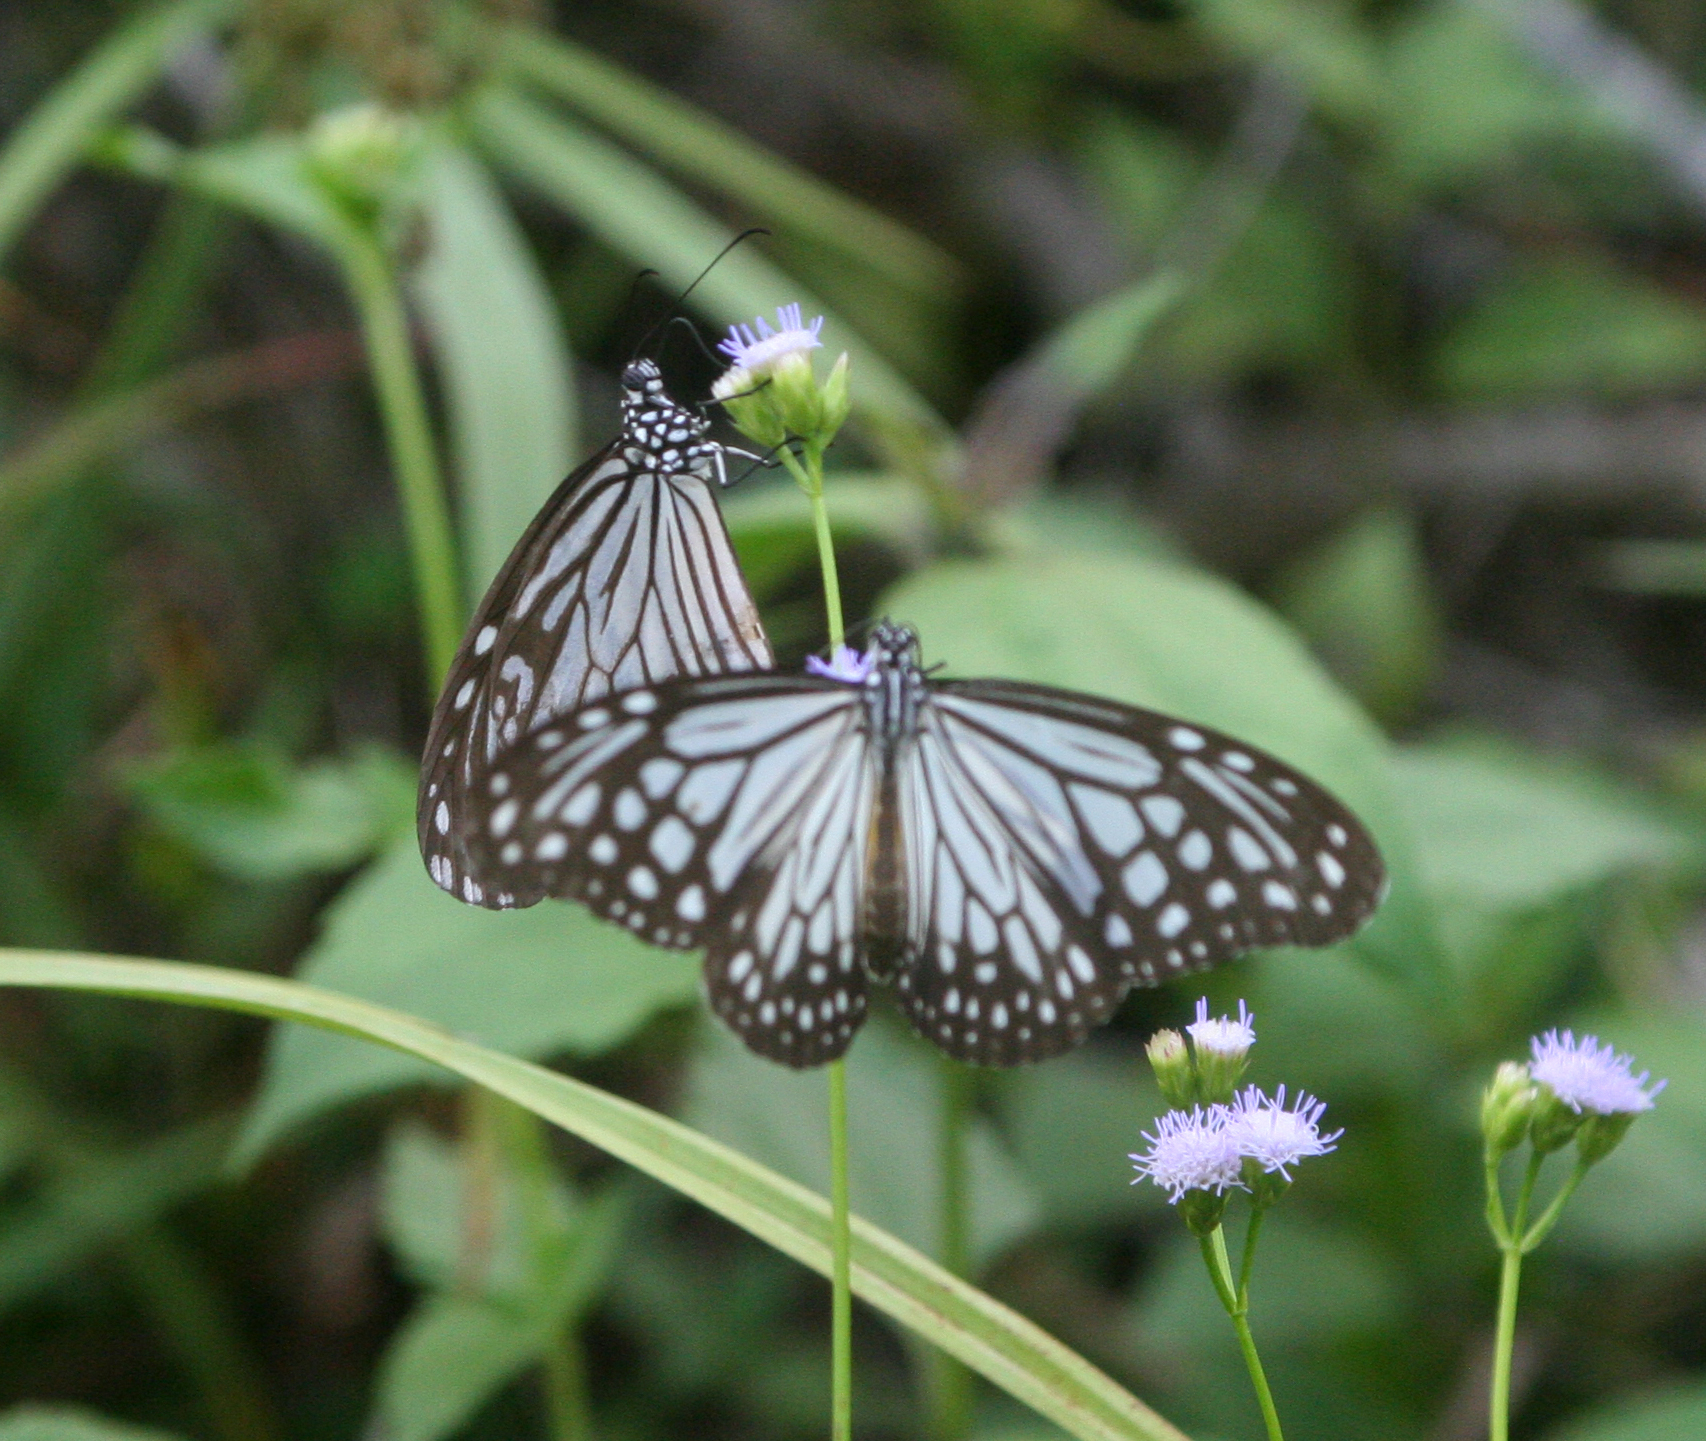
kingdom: Animalia
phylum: Arthropoda
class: Insecta
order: Lepidoptera
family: Nymphalidae
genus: Parantica
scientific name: Parantica aglea
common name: Glassy tiger
